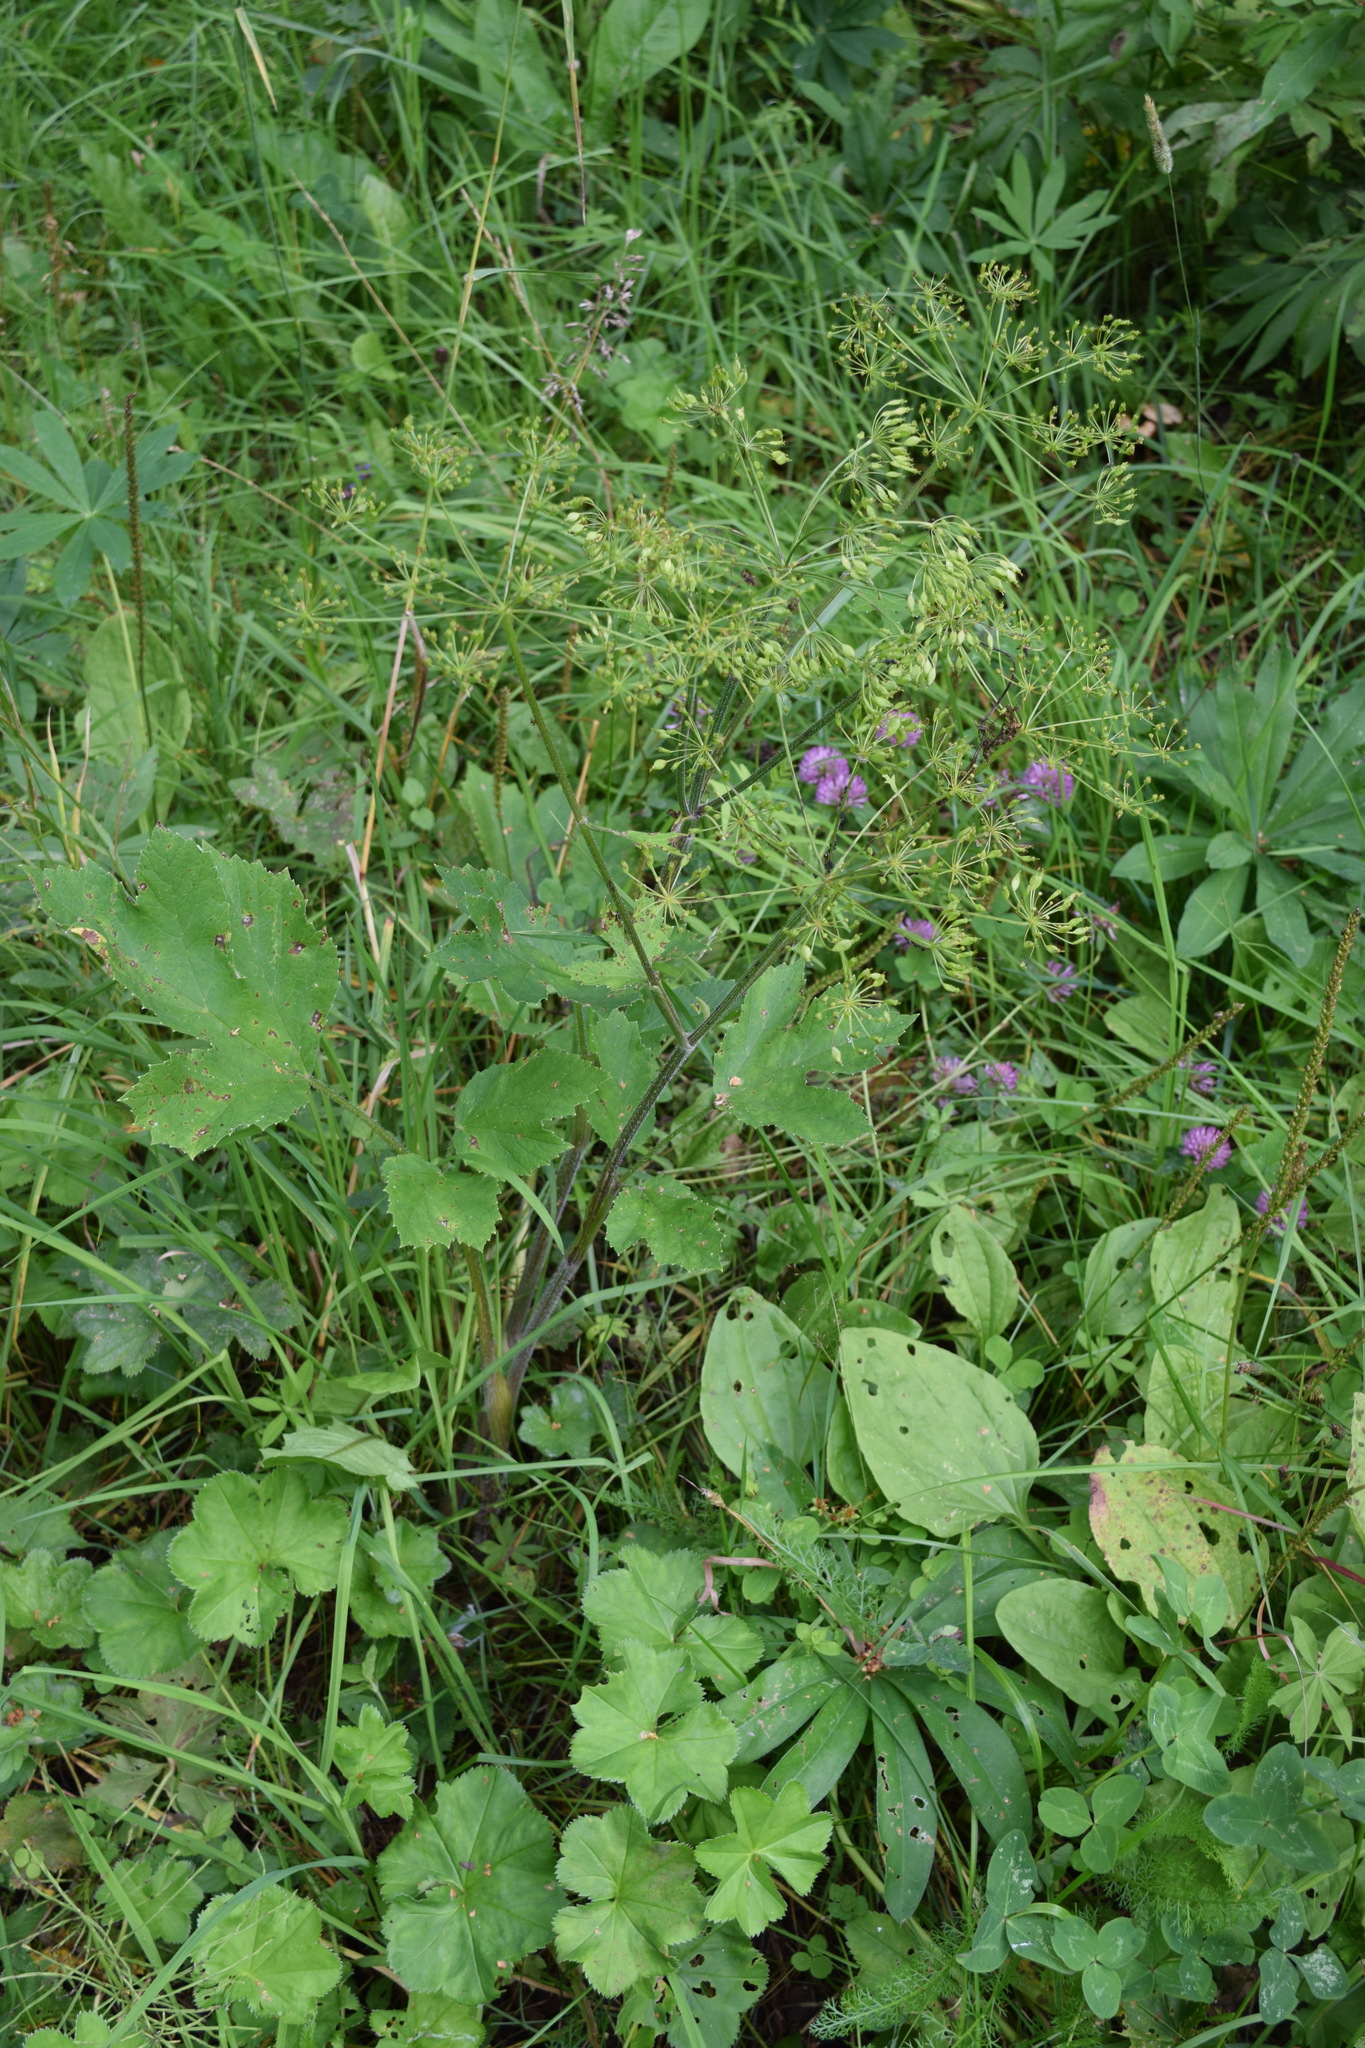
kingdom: Plantae
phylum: Tracheophyta
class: Magnoliopsida
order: Apiales
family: Apiaceae
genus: Heracleum
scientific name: Heracleum sphondylium
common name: Hogweed
